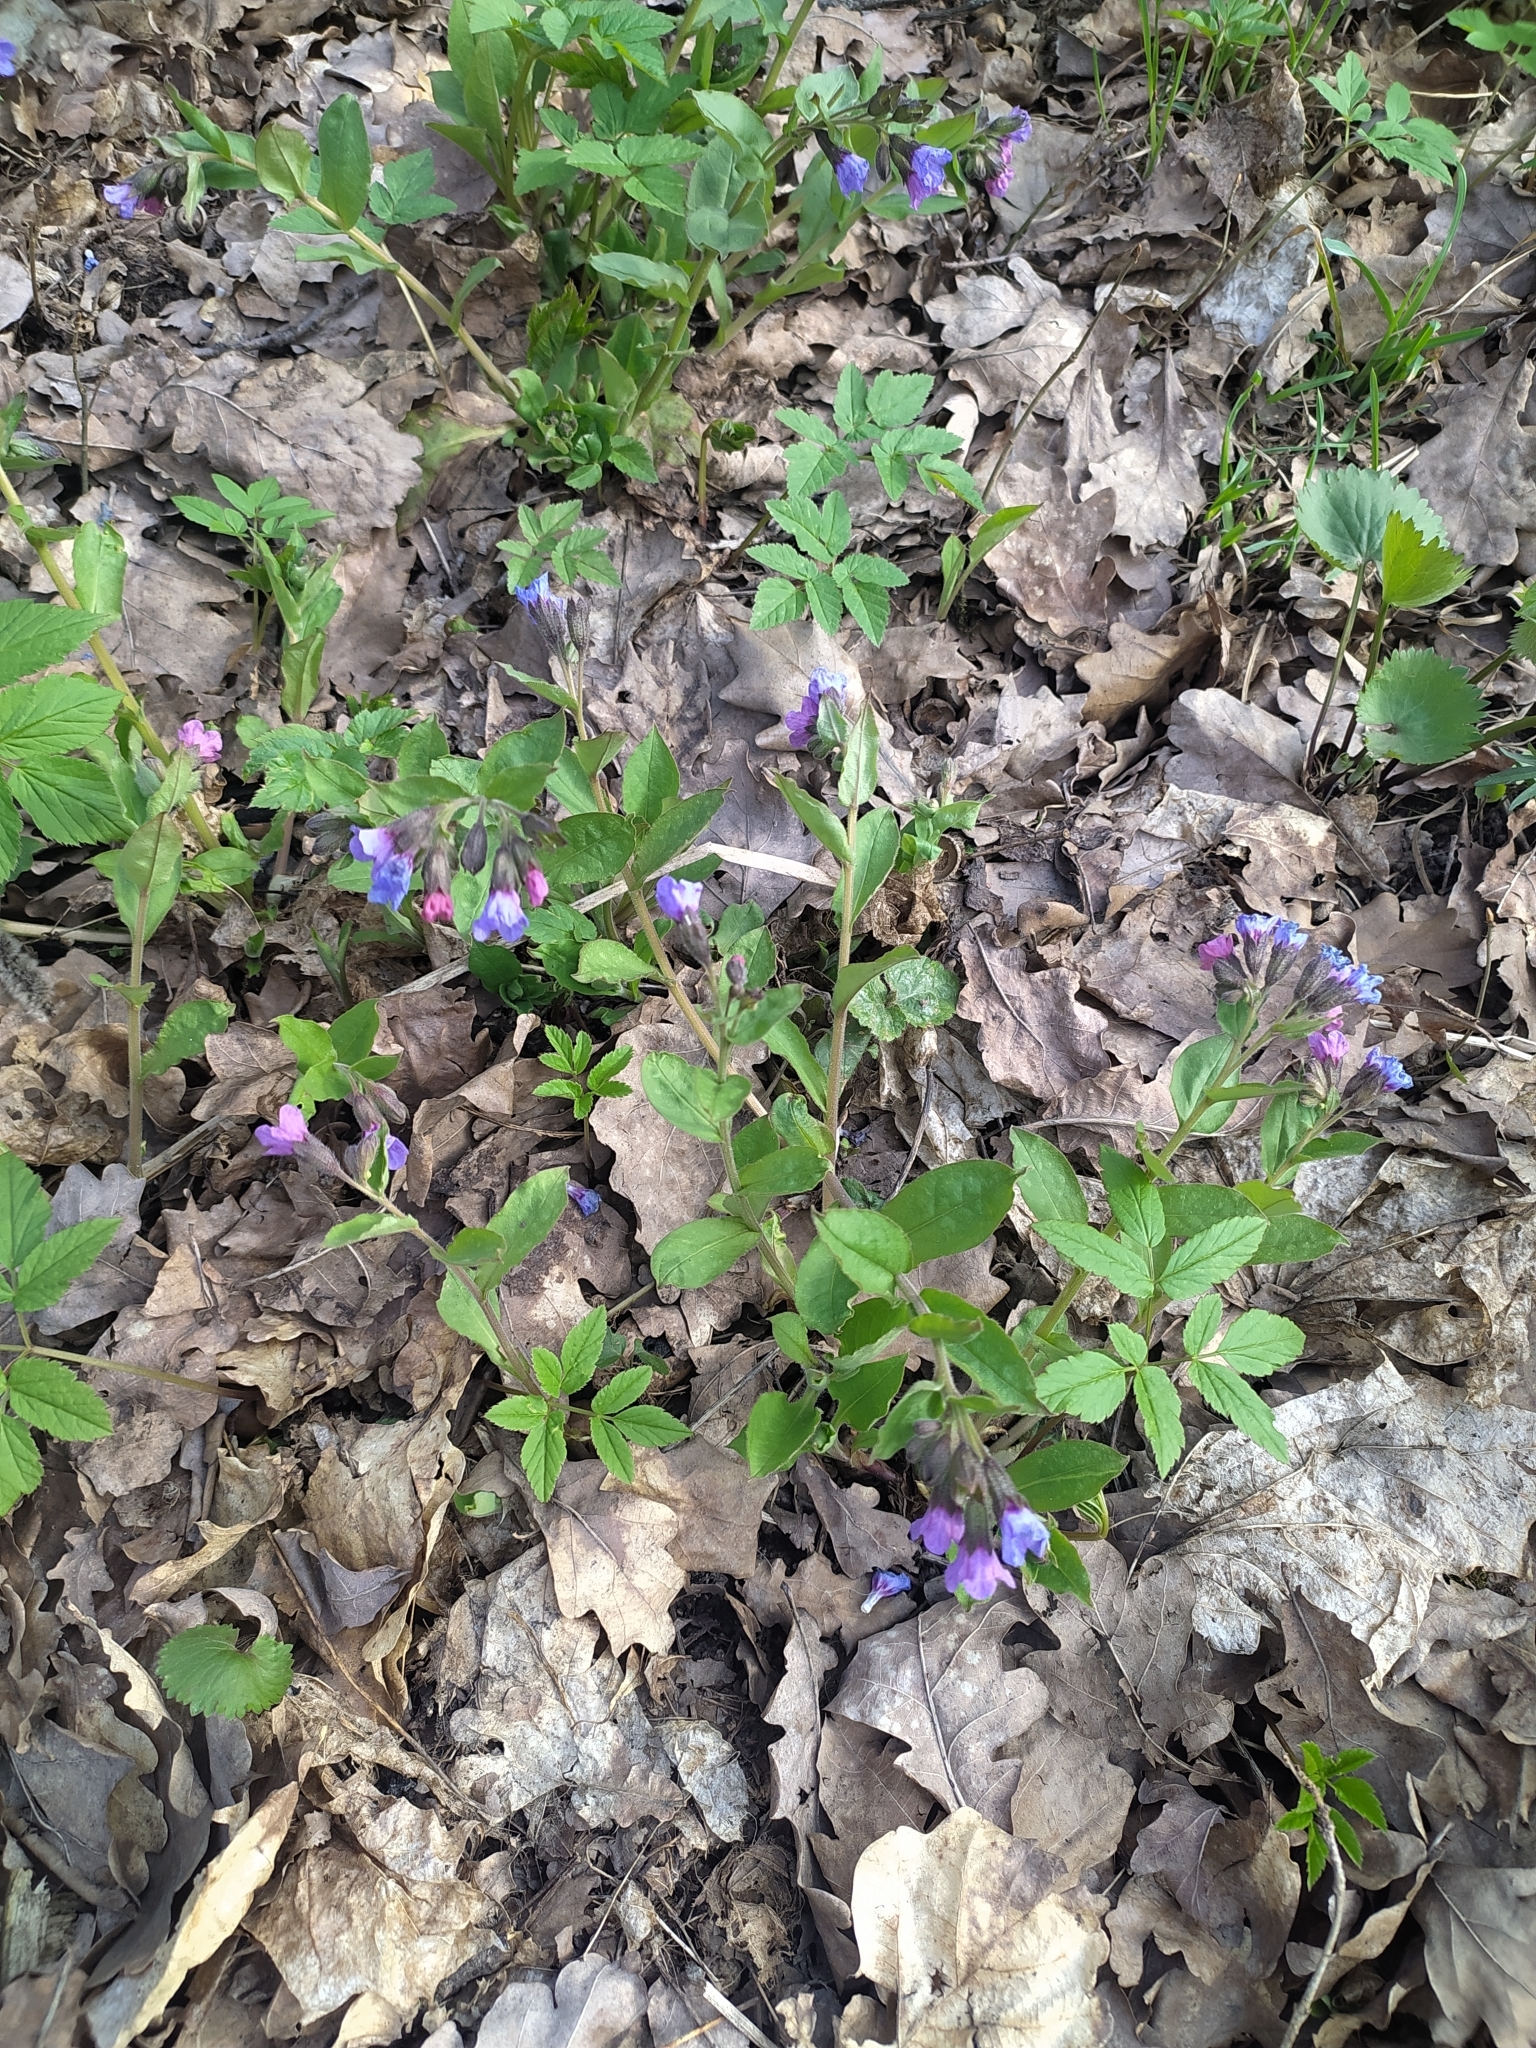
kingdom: Plantae
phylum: Tracheophyta
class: Magnoliopsida
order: Boraginales
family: Boraginaceae
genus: Pulmonaria
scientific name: Pulmonaria obscura
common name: Suffolk lungwort
